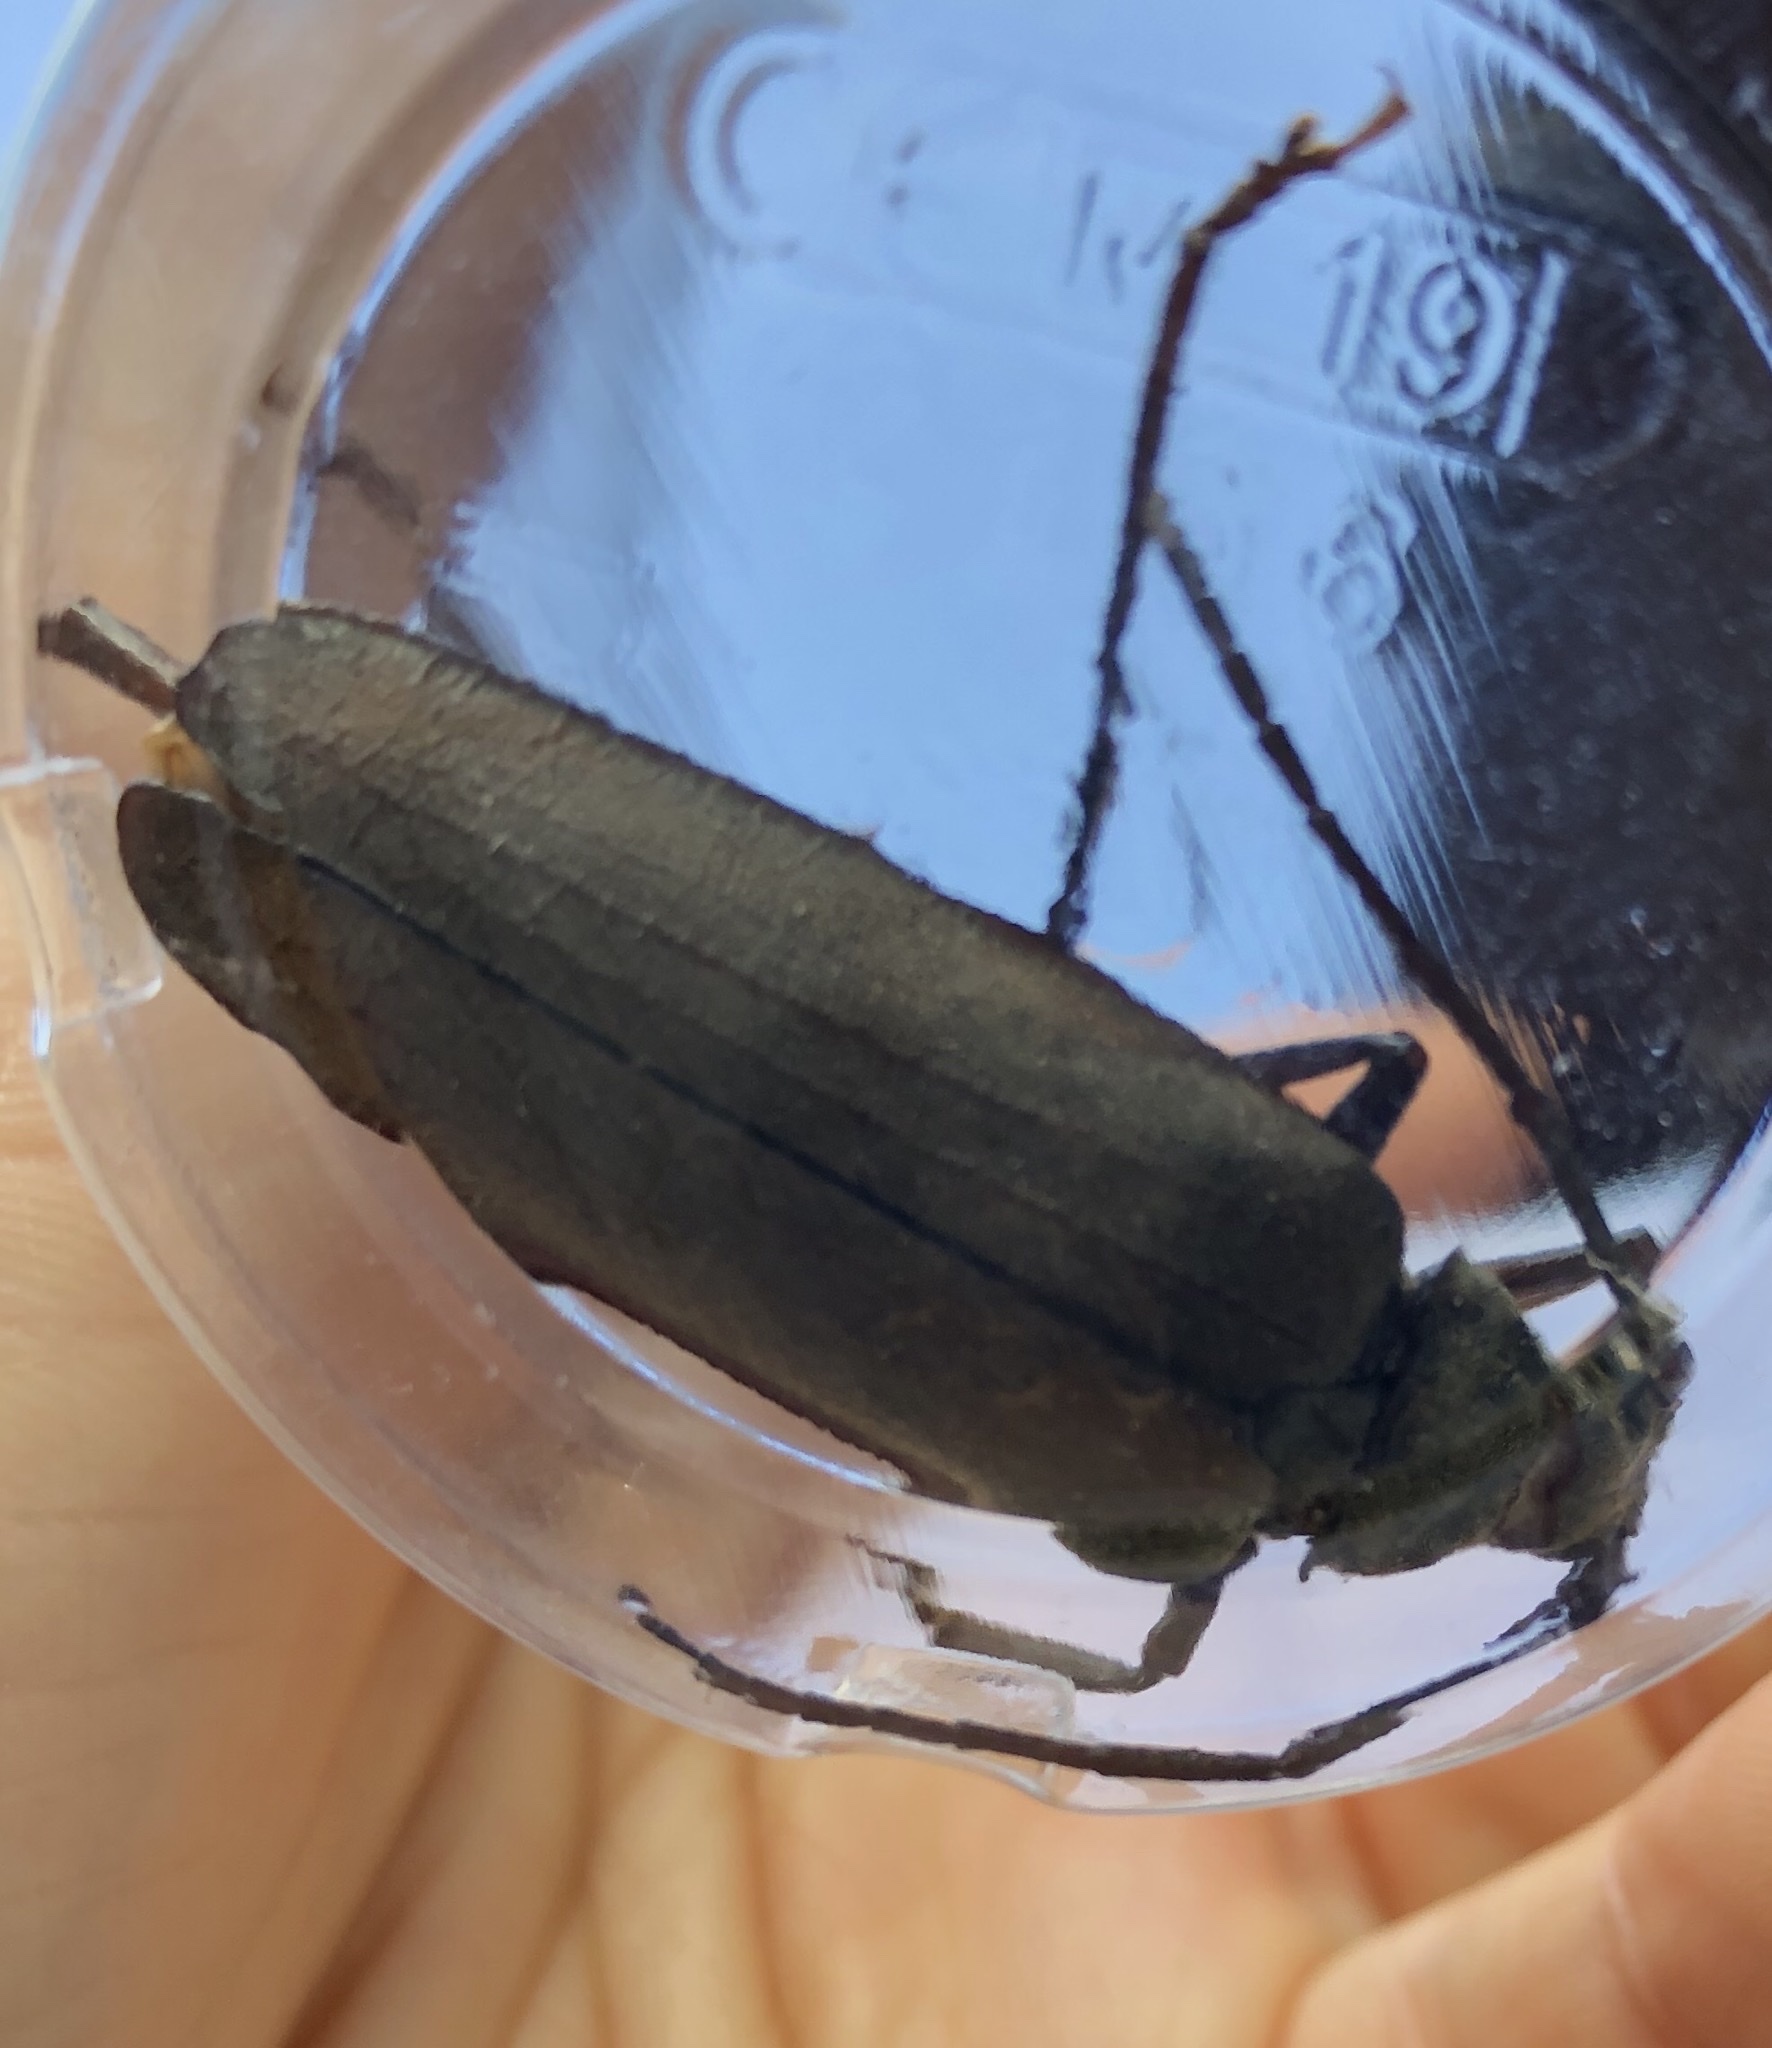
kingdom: Animalia
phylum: Arthropoda
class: Insecta
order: Coleoptera
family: Cerambycidae
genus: Aegosoma
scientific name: Aegosoma scabricorne
